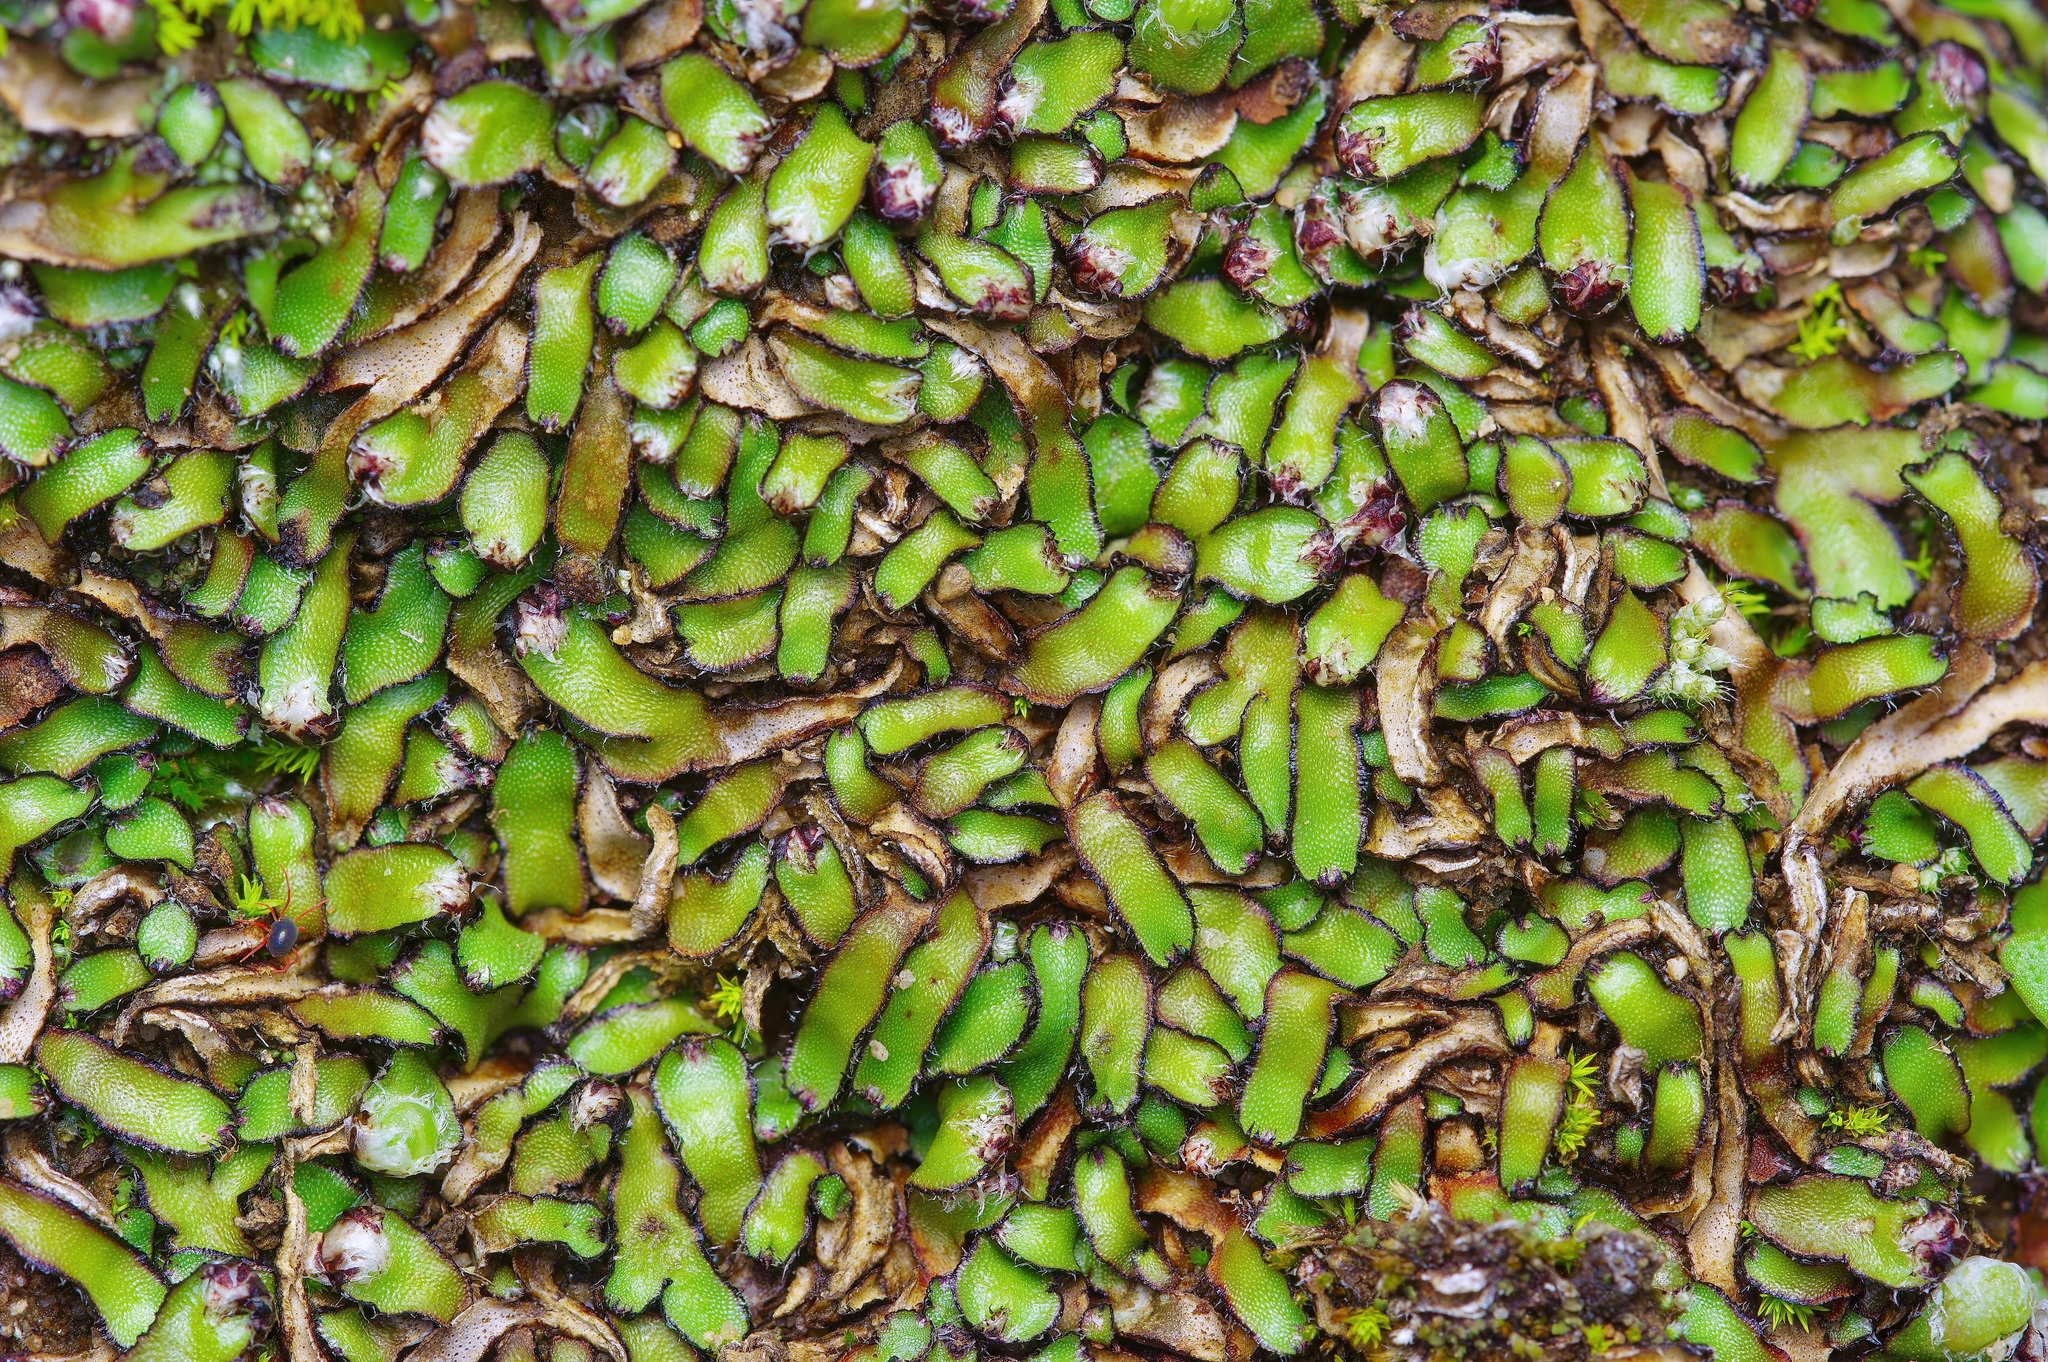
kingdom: Plantae
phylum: Marchantiophyta
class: Marchantiopsida
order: Marchantiales
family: Aytoniaceae
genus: Mannia
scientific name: Mannia fragrans
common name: Fragrant macewort
